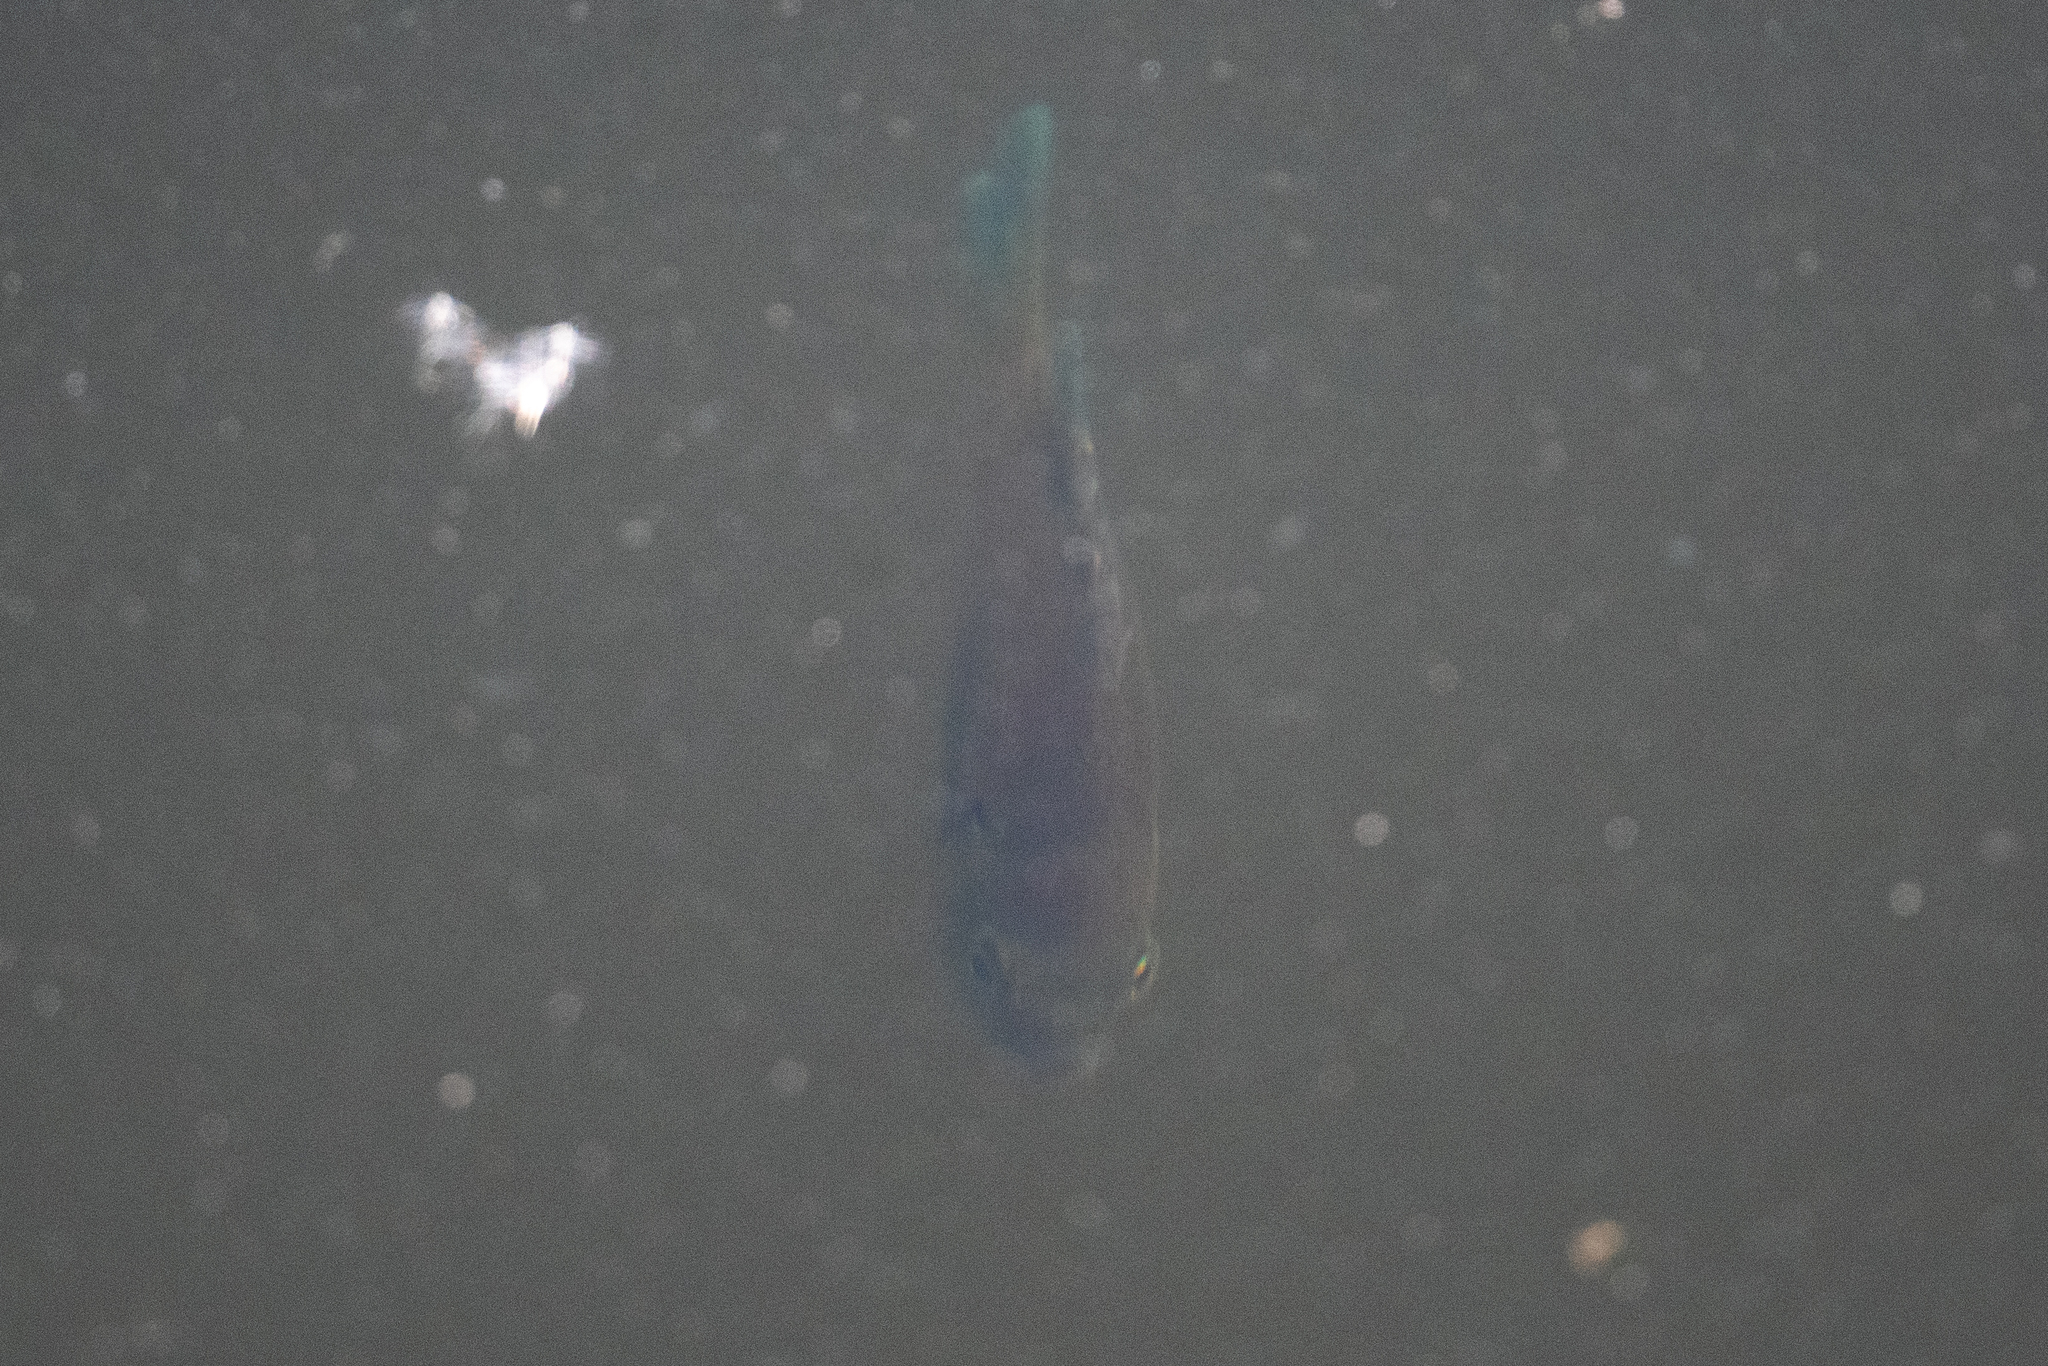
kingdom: Animalia
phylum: Chordata
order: Perciformes
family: Centrarchidae
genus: Lepomis
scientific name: Lepomis macrochirus
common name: Bluegill
